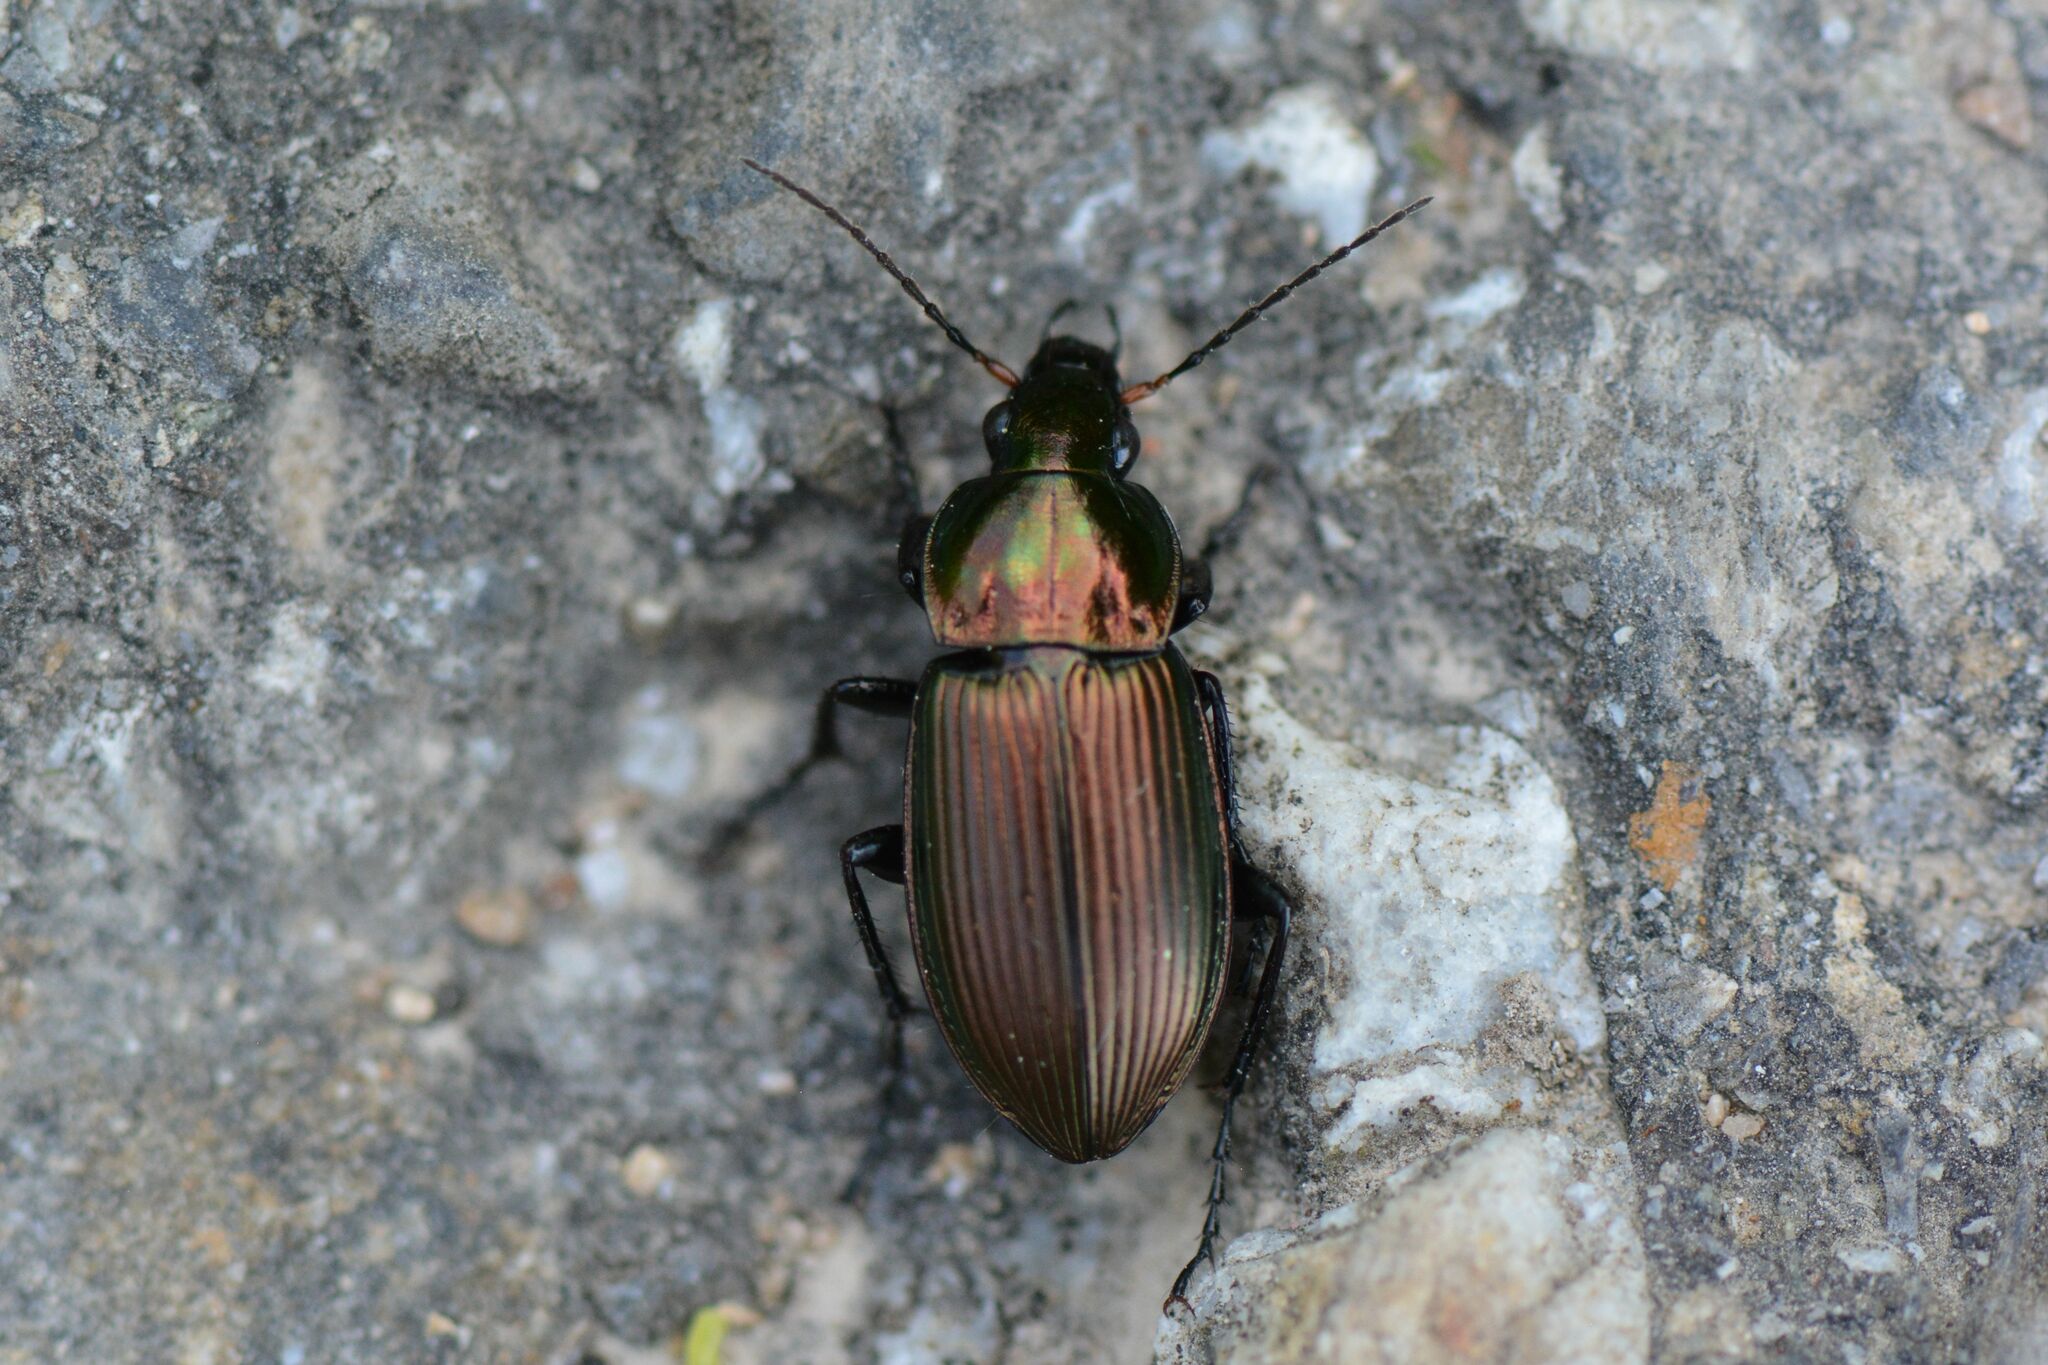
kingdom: Animalia
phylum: Arthropoda
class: Insecta
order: Coleoptera
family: Carabidae
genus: Poecilus
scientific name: Poecilus cupreus
